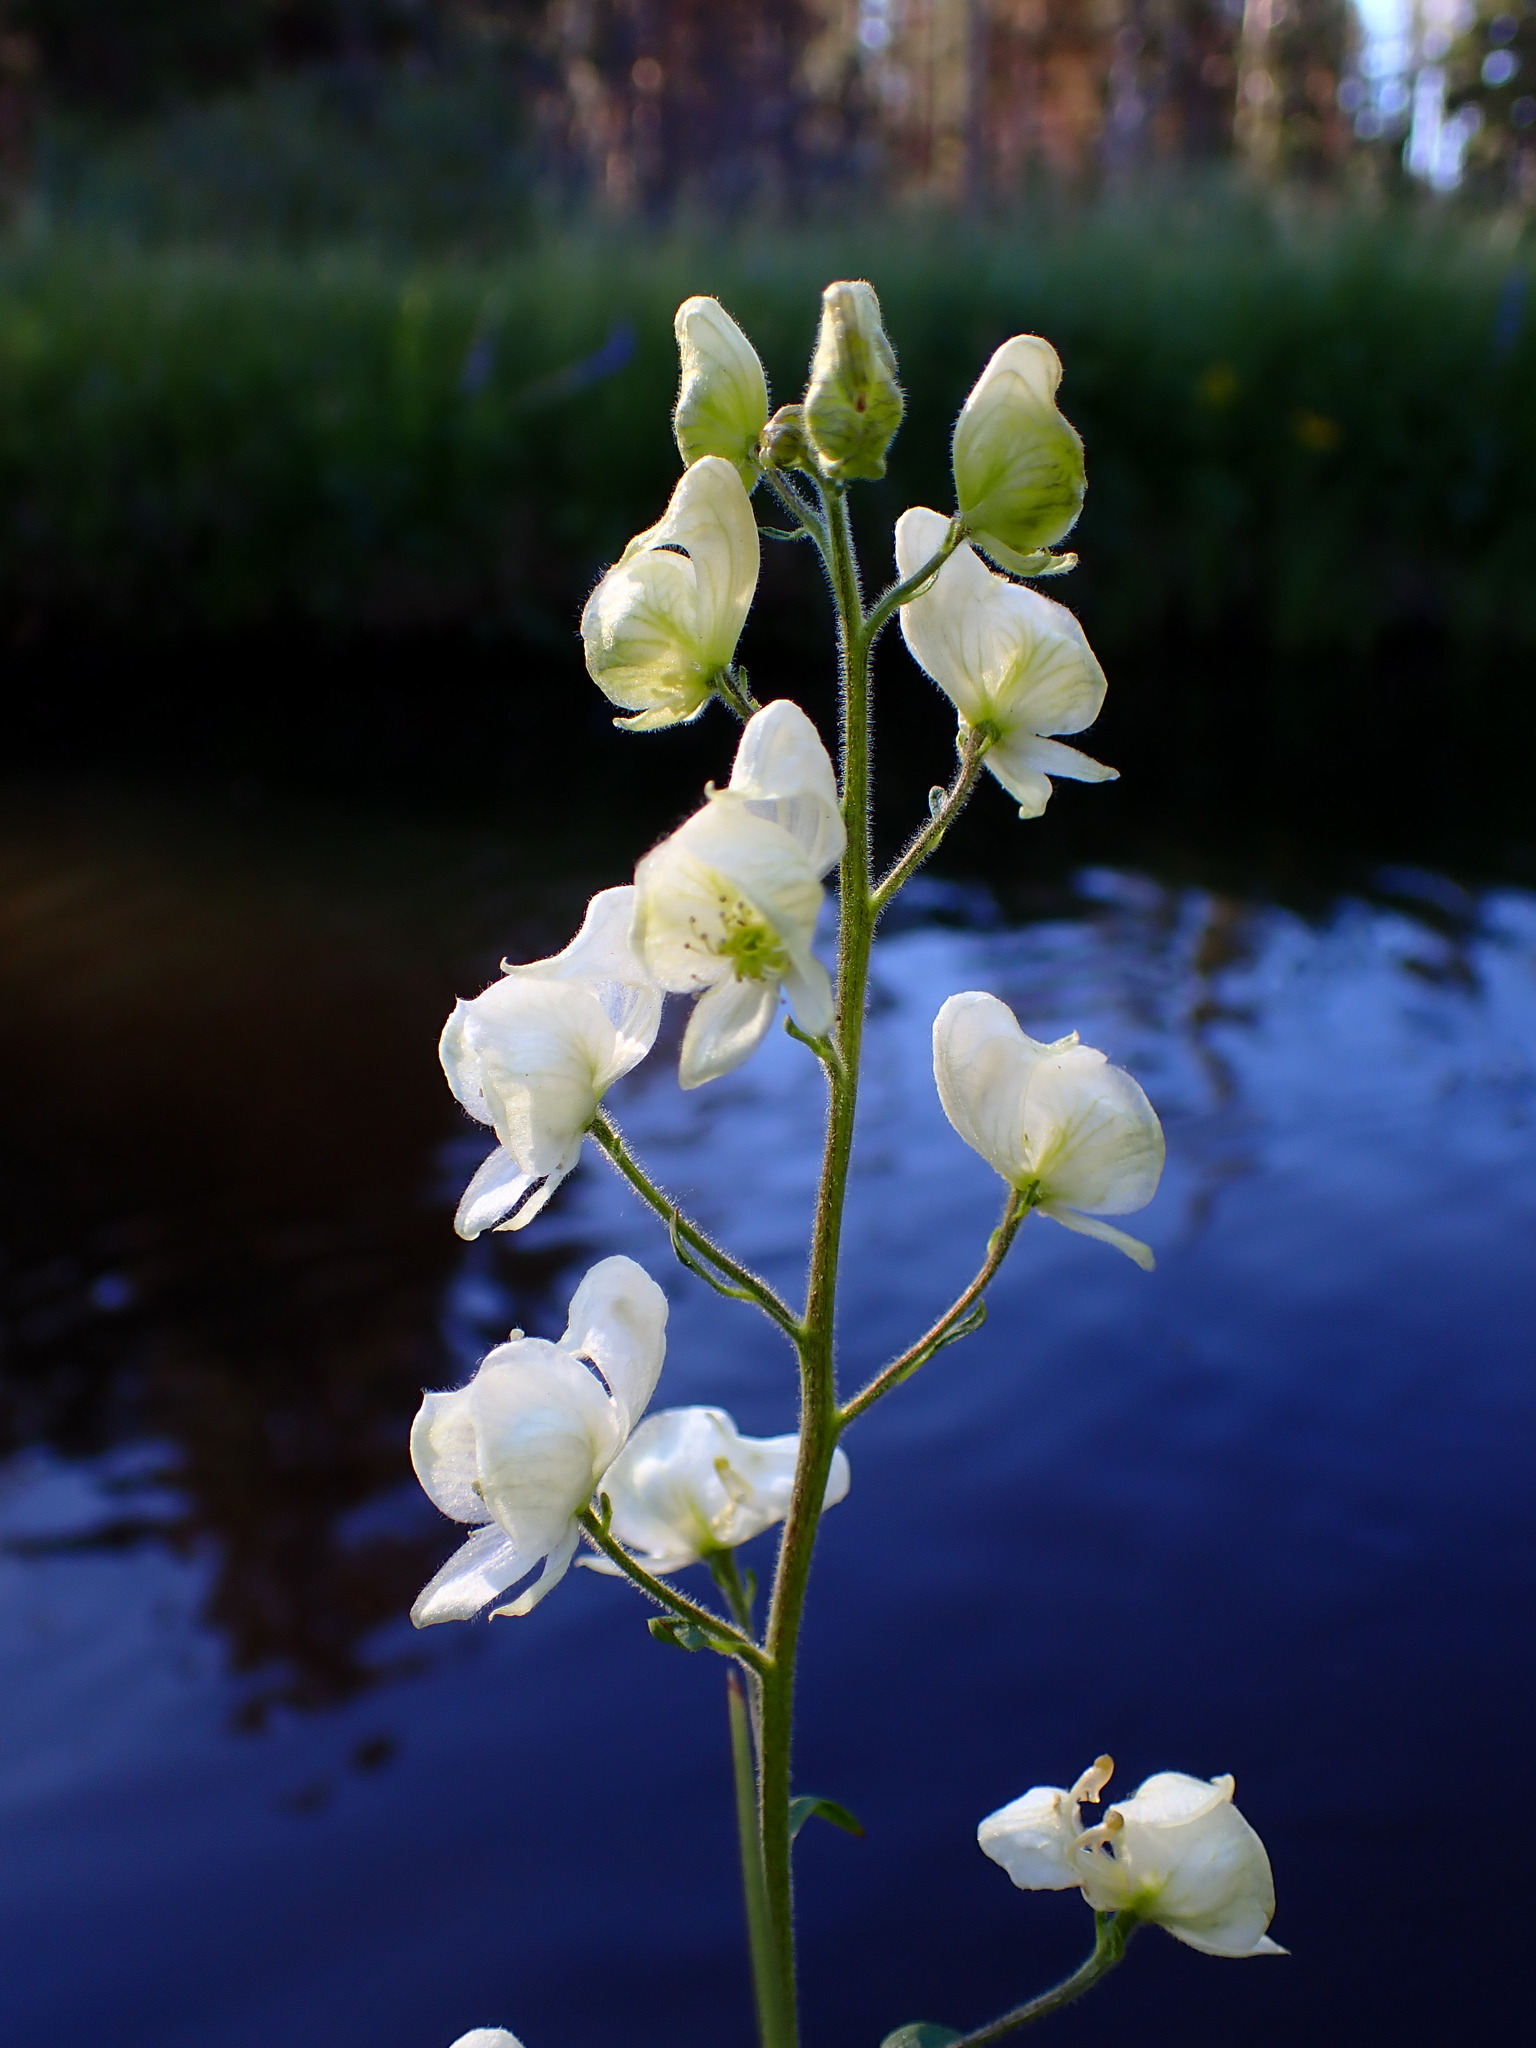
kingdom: Plantae
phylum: Tracheophyta
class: Magnoliopsida
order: Ranunculales
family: Ranunculaceae
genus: Aconitum
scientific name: Aconitum columbianum
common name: Columbia aconite
